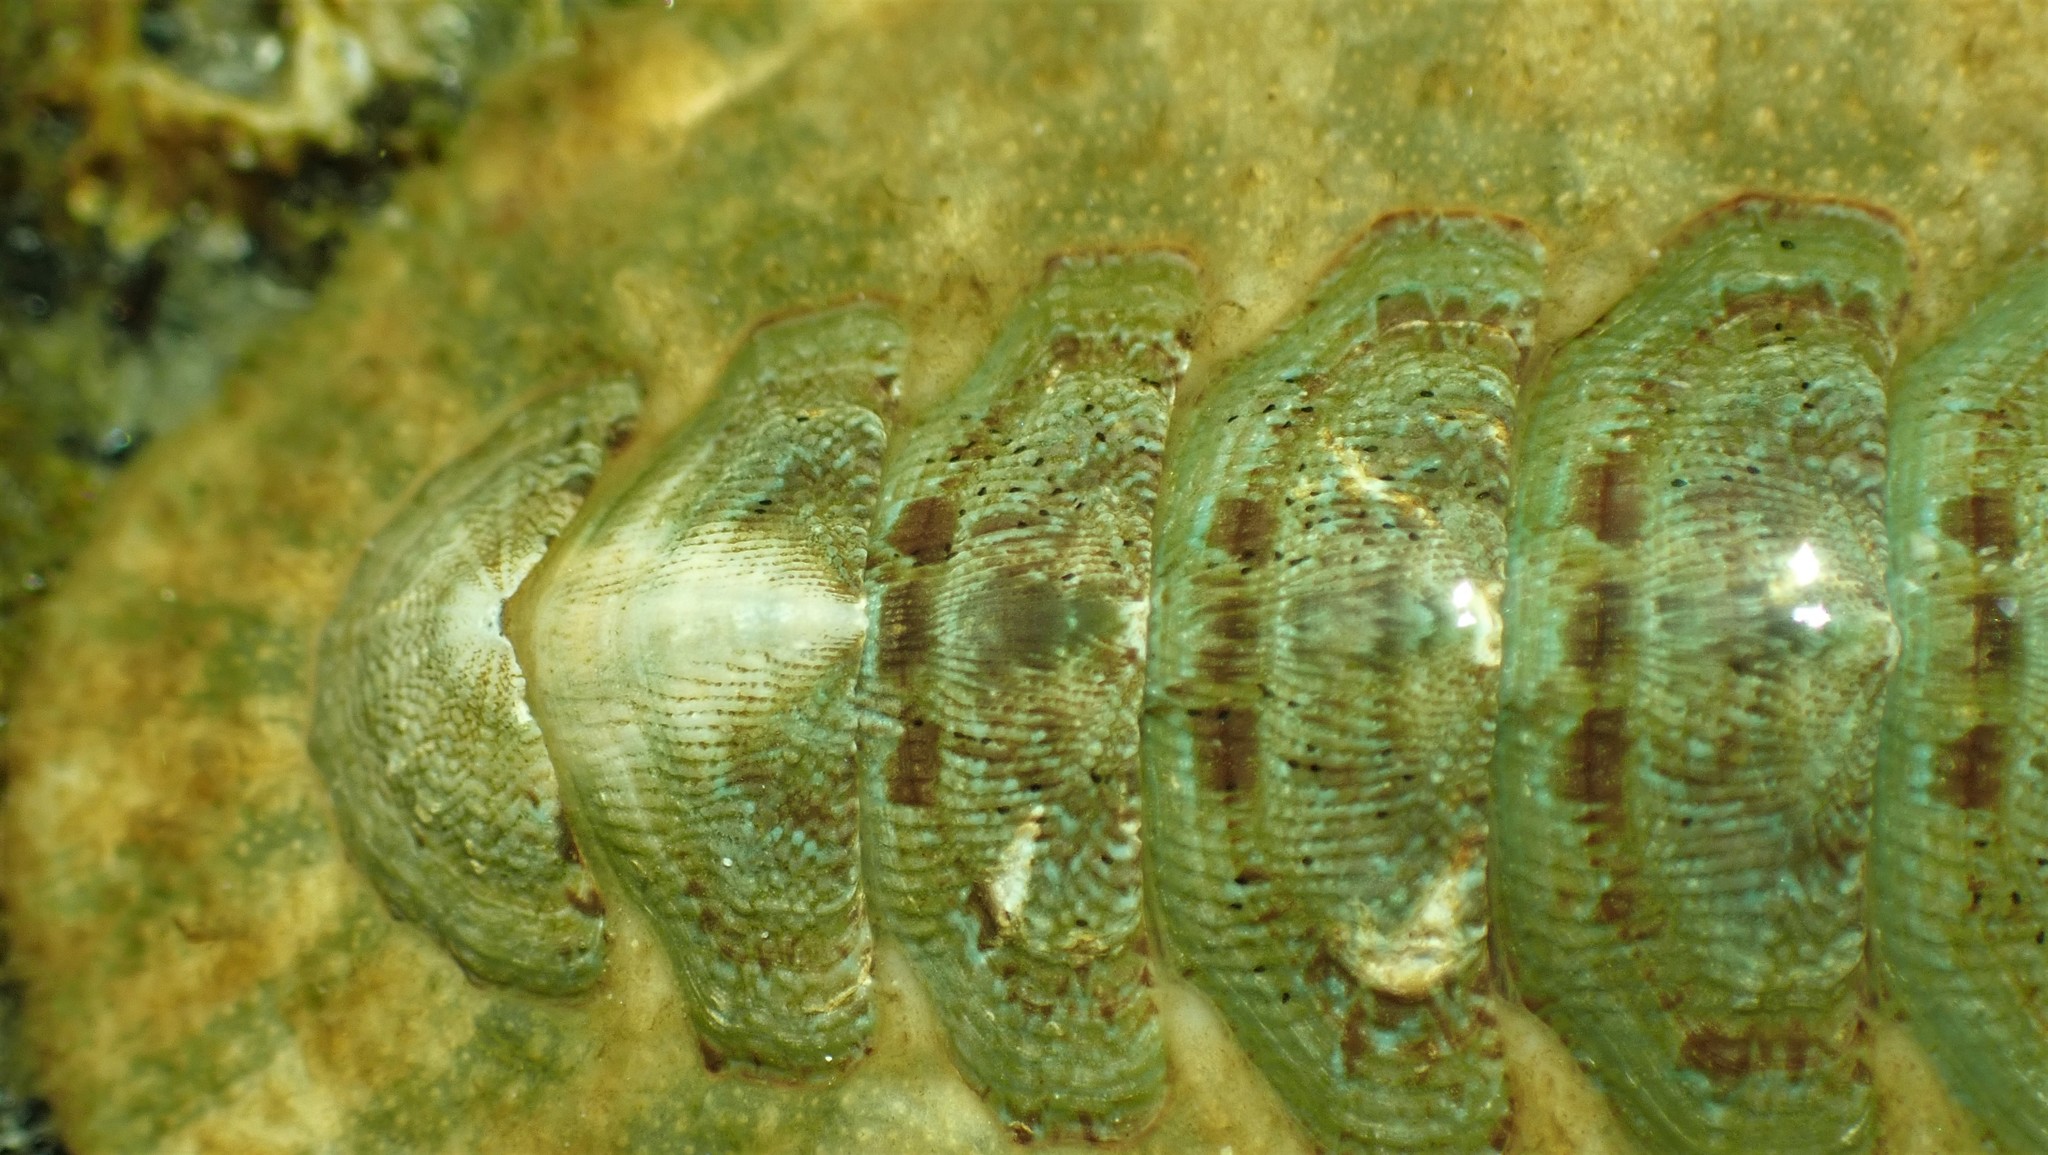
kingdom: Animalia
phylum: Mollusca
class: Polyplacophora
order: Chitonida
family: Mopaliidae
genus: Mopalia
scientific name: Mopalia swanii
